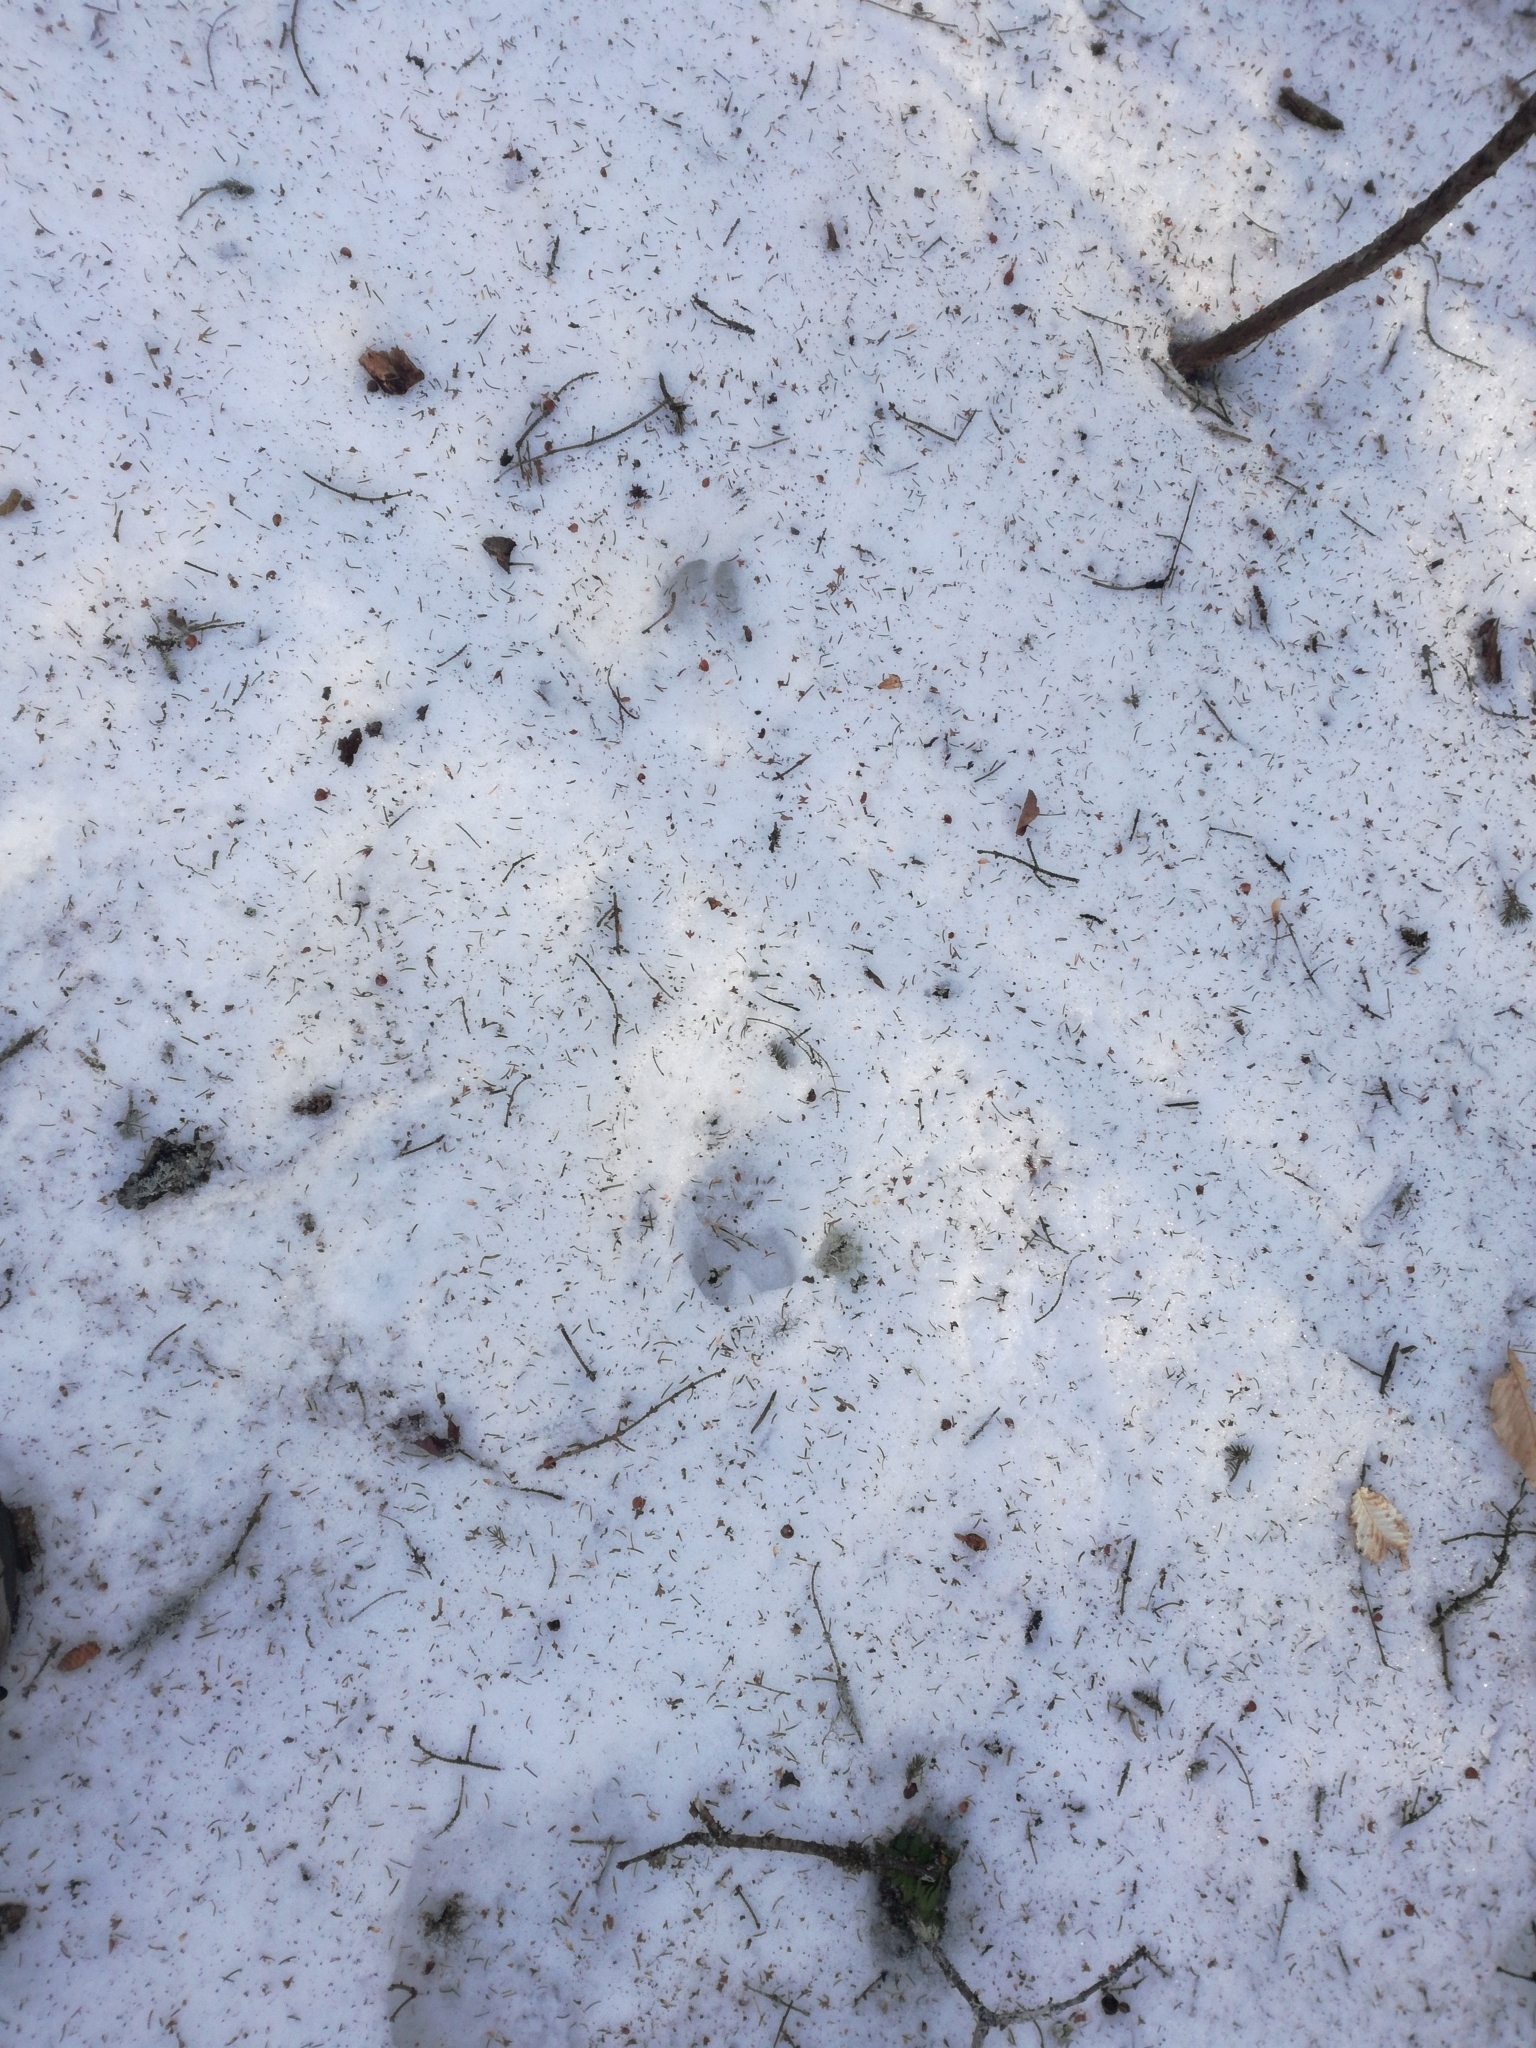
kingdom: Animalia
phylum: Chordata
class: Mammalia
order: Artiodactyla
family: Cervidae
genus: Odocoileus
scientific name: Odocoileus virginianus
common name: White-tailed deer
